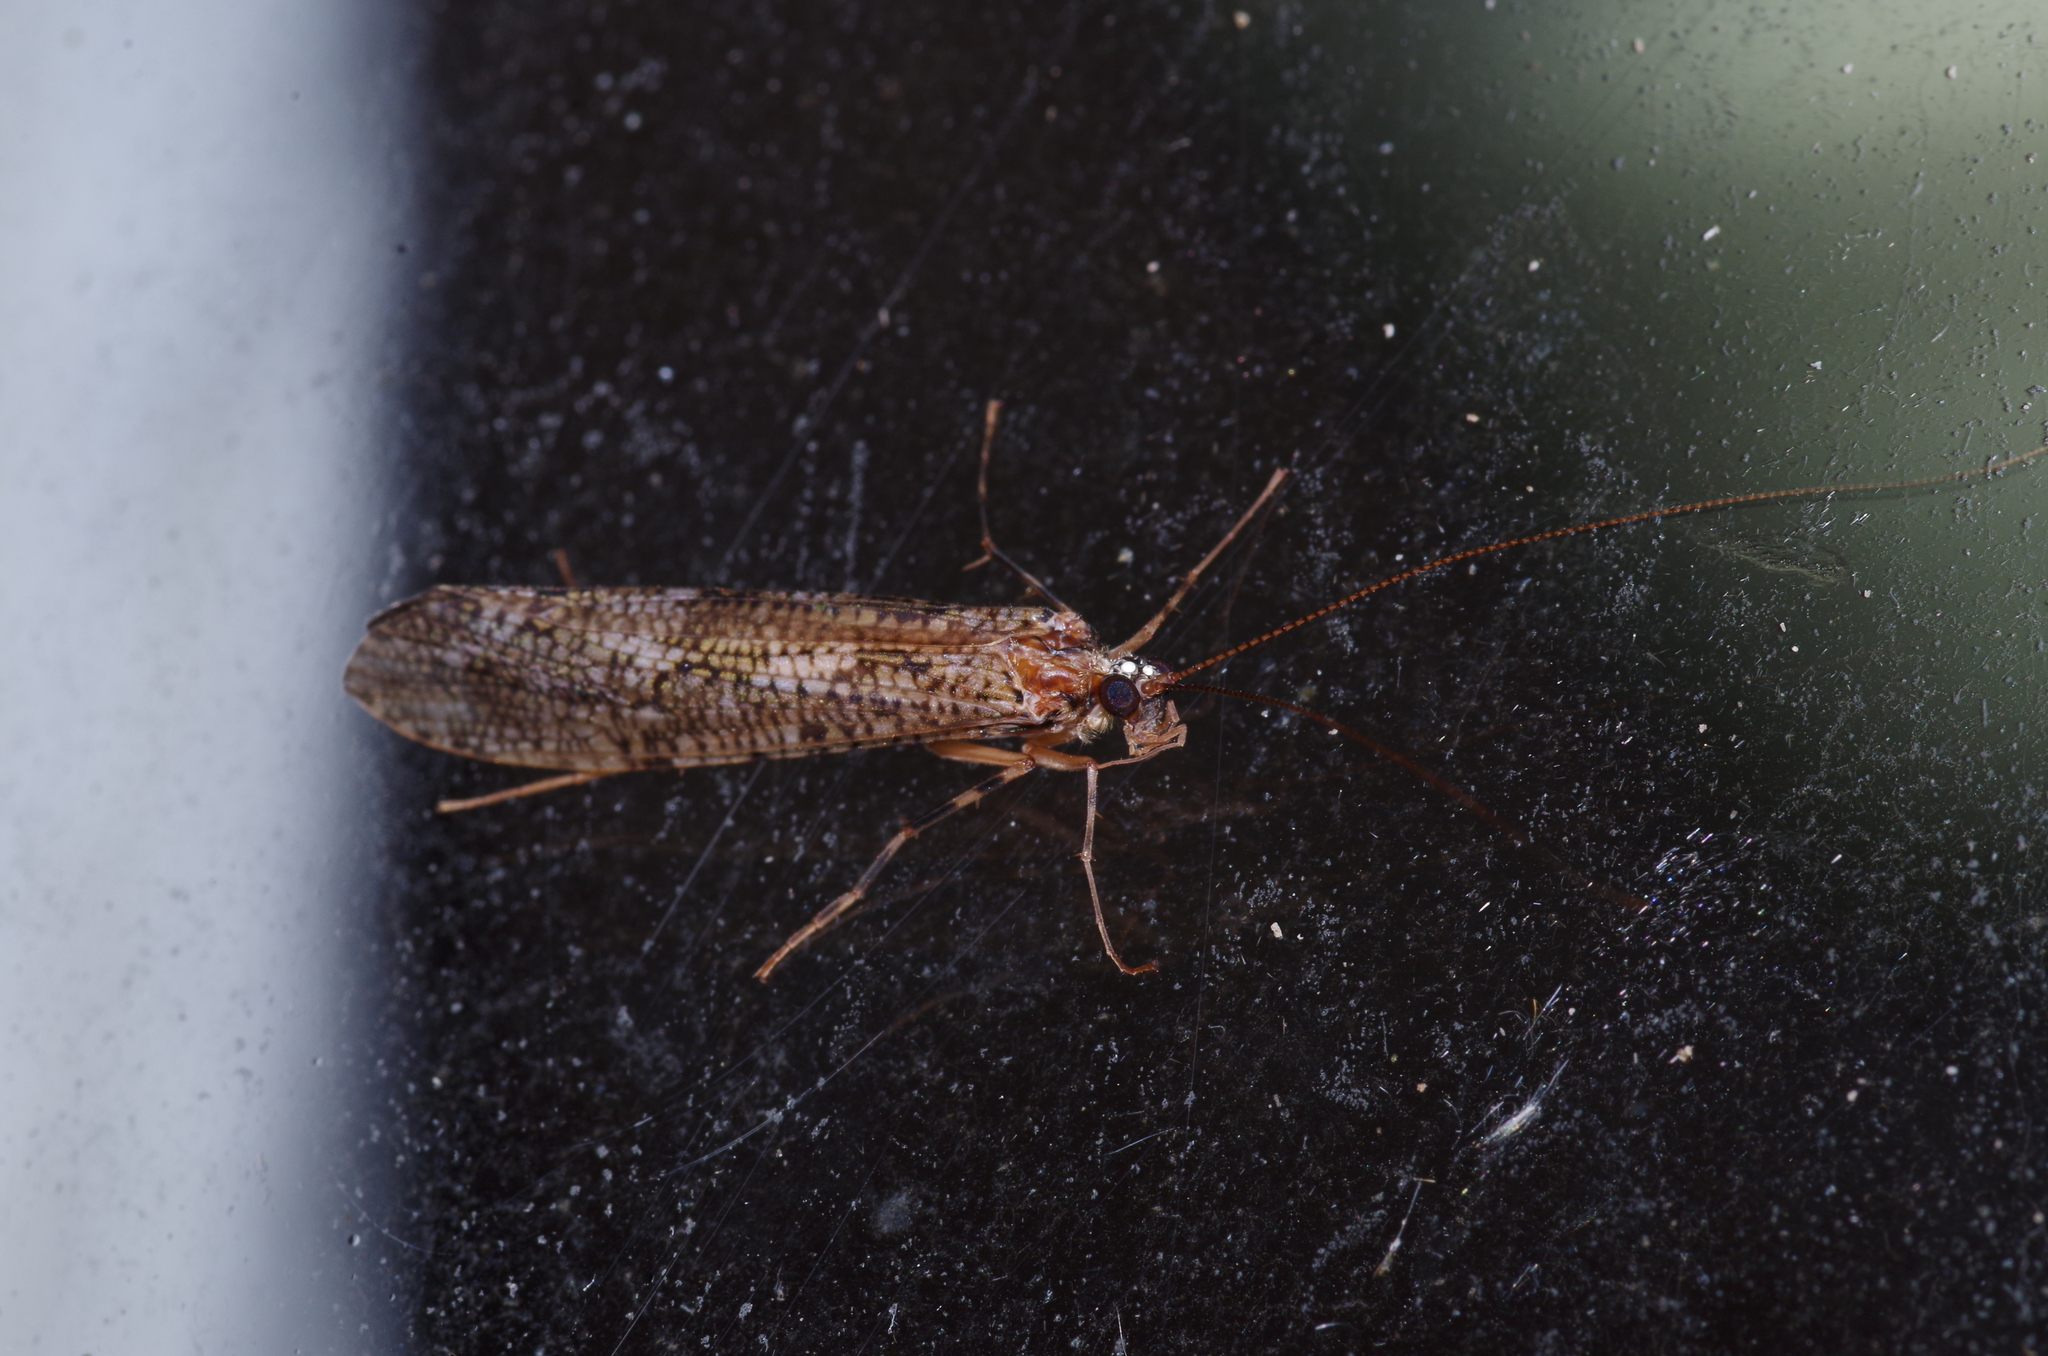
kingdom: Animalia
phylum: Arthropoda
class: Insecta
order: Trichoptera
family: Stenopsychidae
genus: Stenopsyche
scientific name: Stenopsyche schmidi
